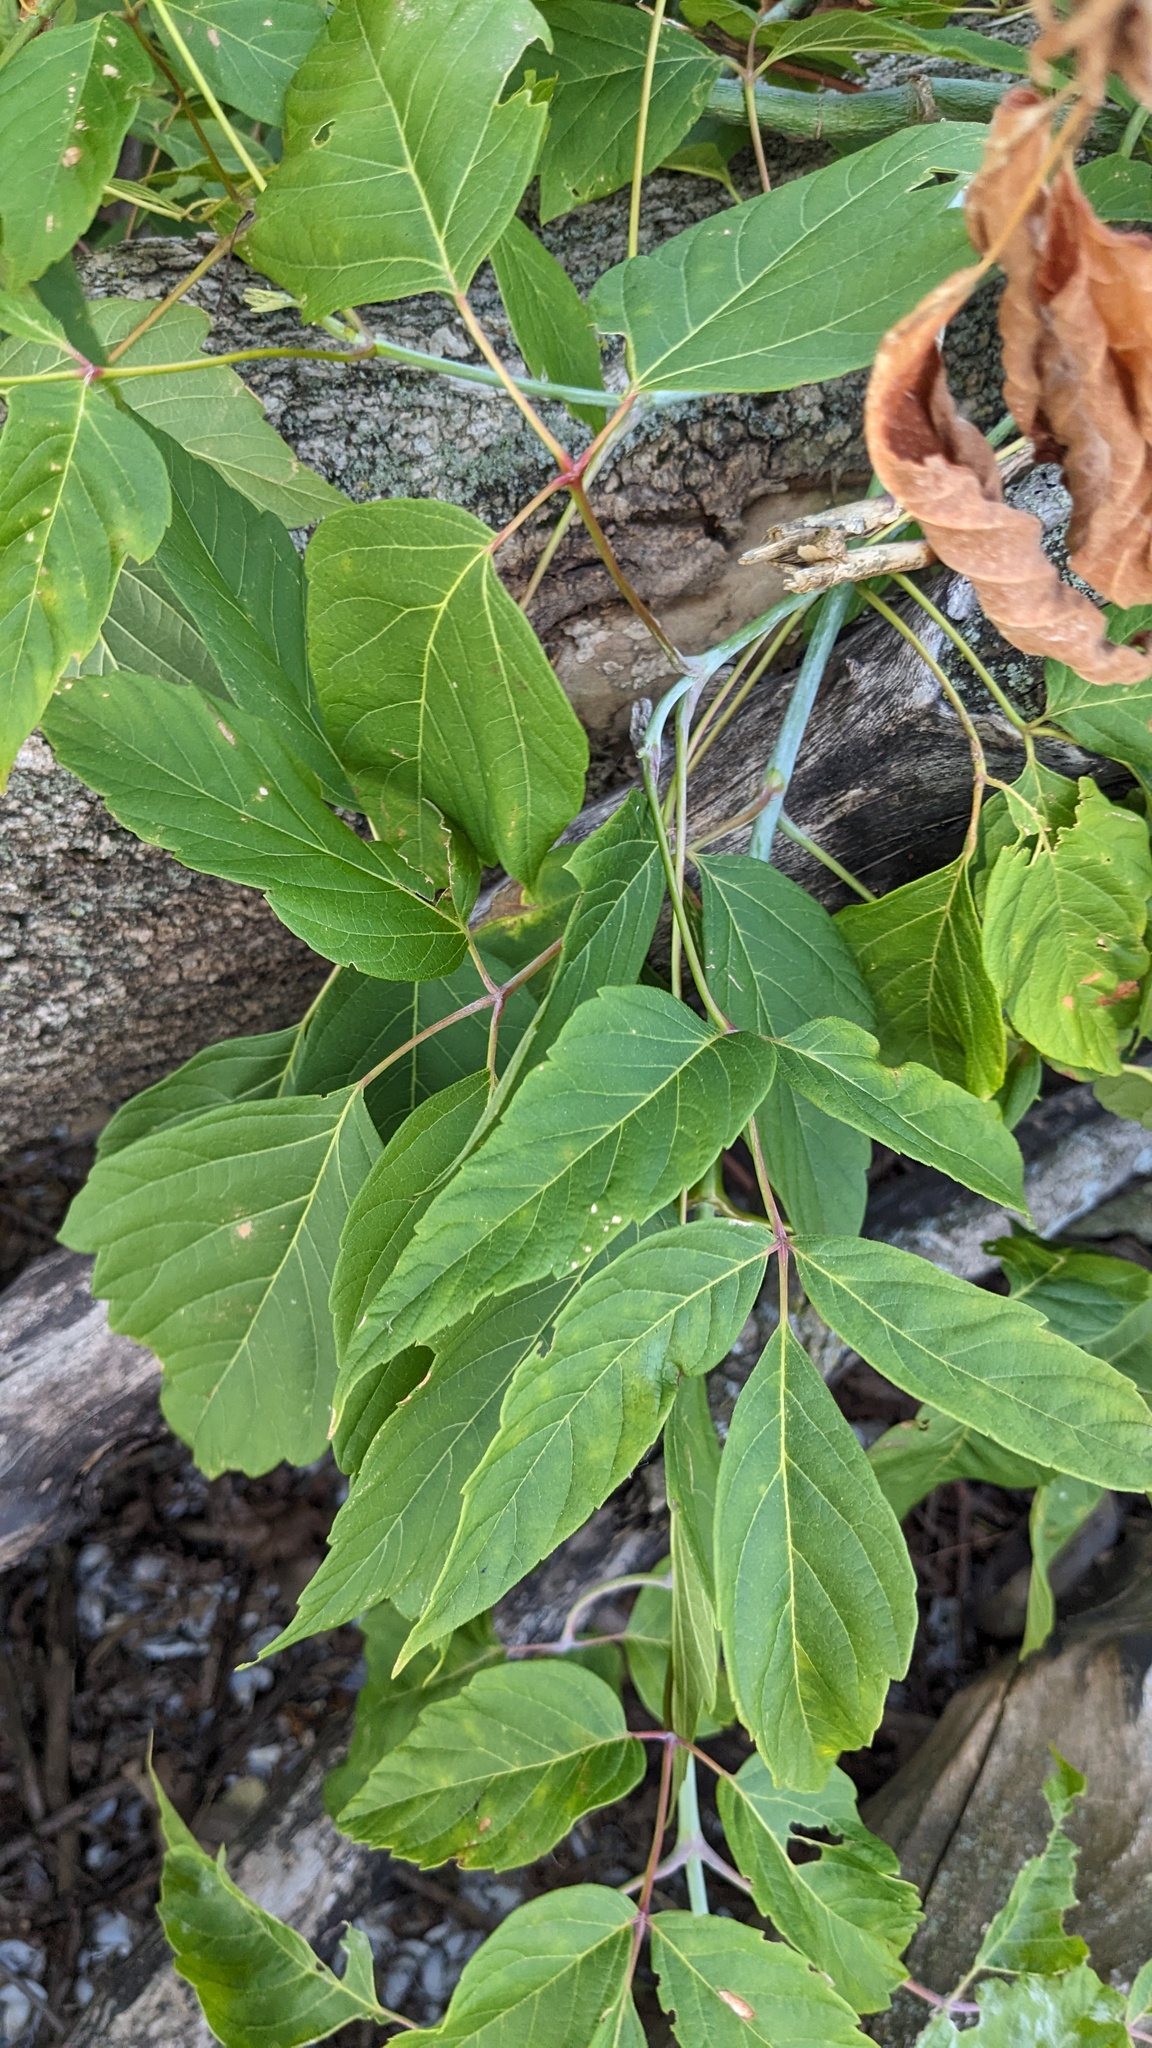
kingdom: Plantae
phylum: Tracheophyta
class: Magnoliopsida
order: Sapindales
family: Sapindaceae
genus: Acer
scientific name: Acer negundo
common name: Ashleaf maple
